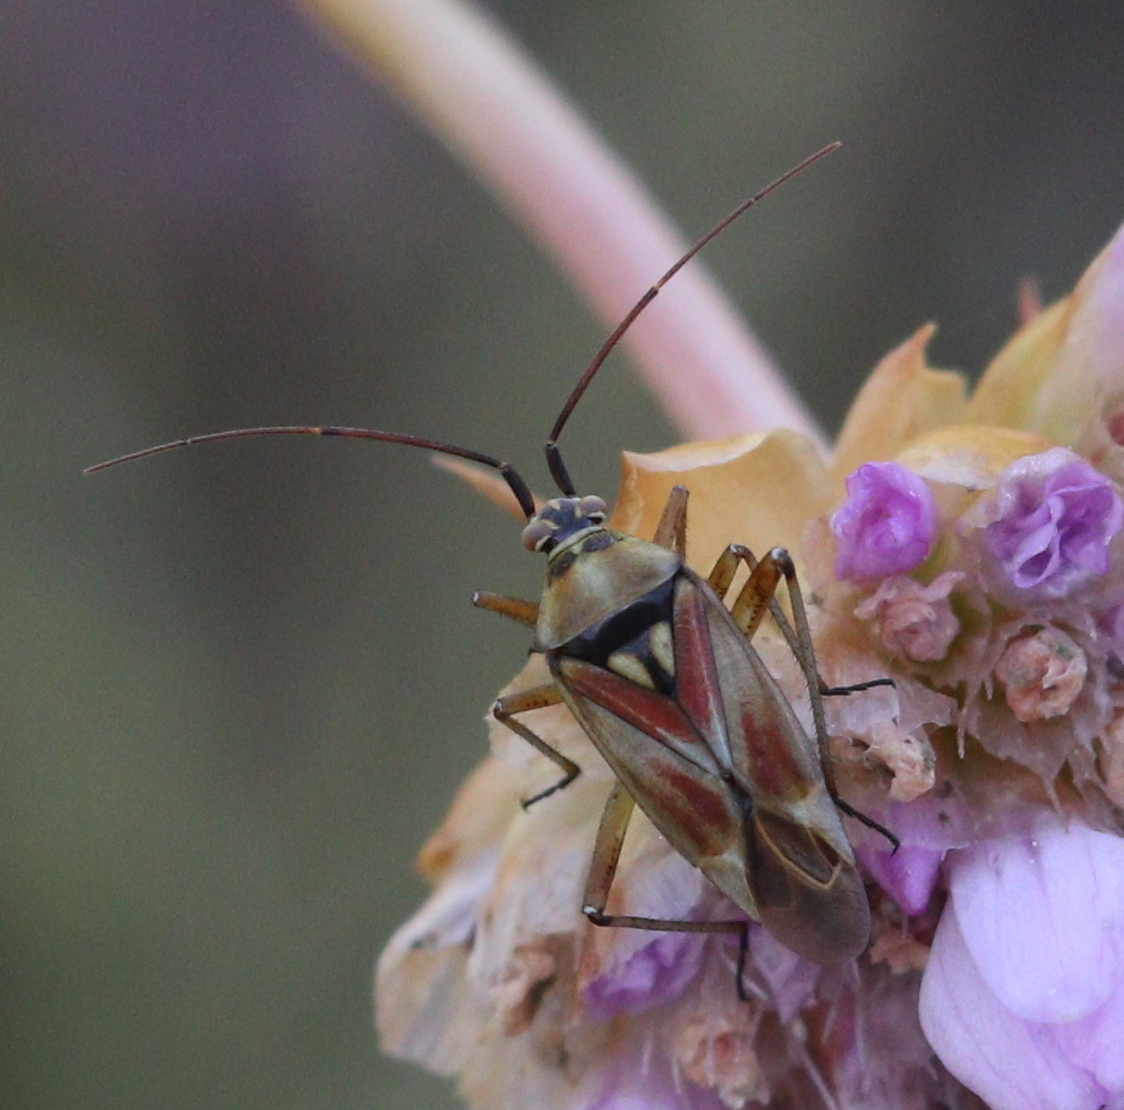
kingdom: Animalia
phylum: Arthropoda
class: Insecta
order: Hemiptera
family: Miridae
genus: Calocoris
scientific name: Calocoris roseomaculatus
